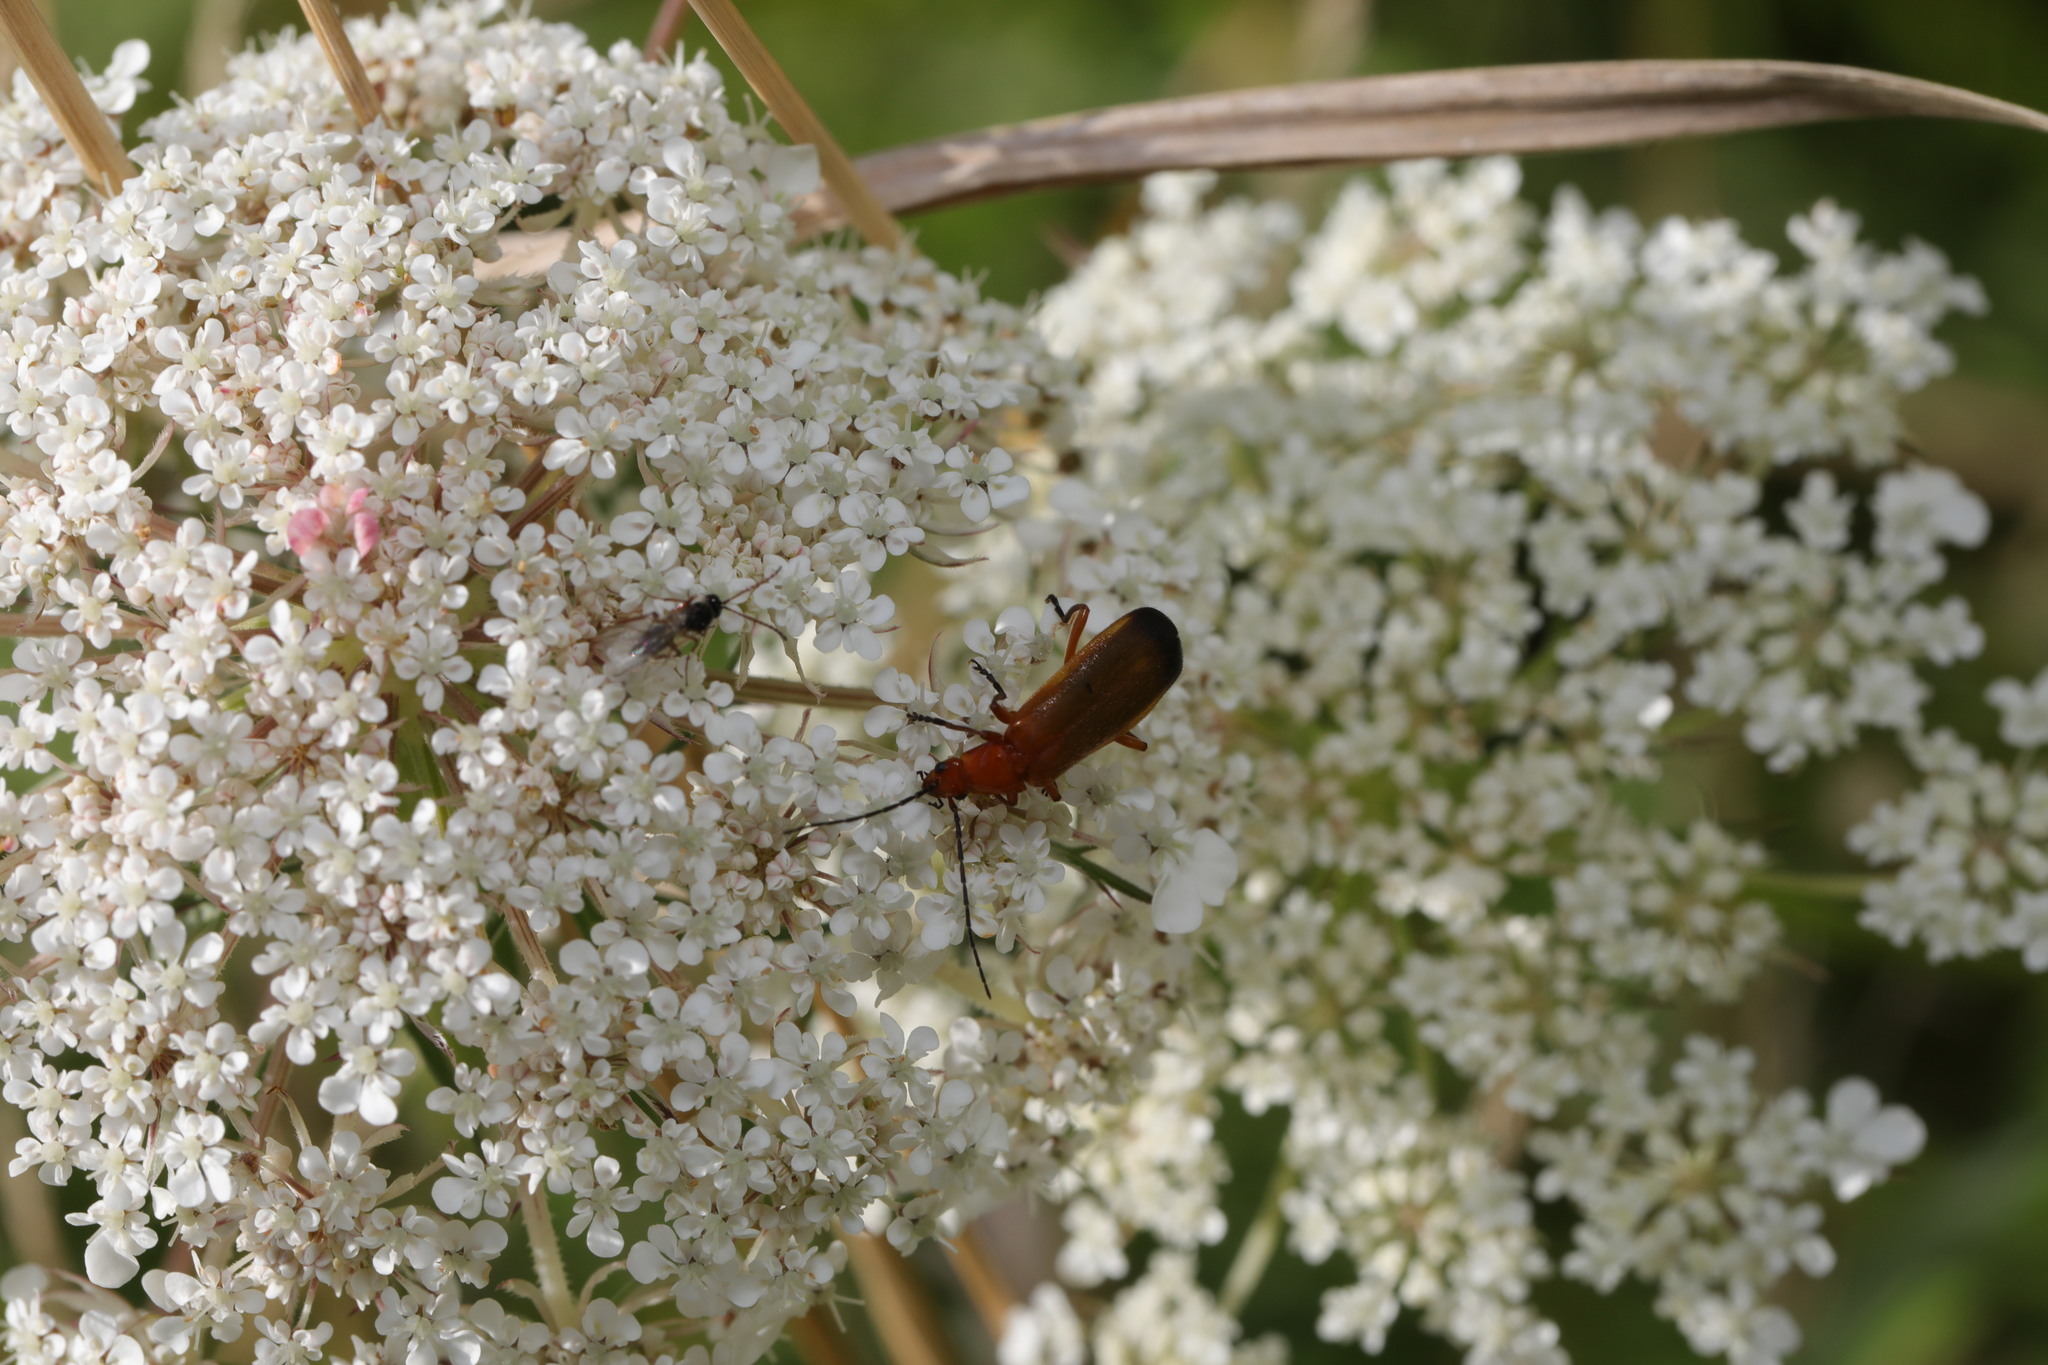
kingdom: Animalia
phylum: Arthropoda
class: Insecta
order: Coleoptera
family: Cantharidae
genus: Rhagonycha
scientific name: Rhagonycha fulva
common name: Common red soldier beetle
